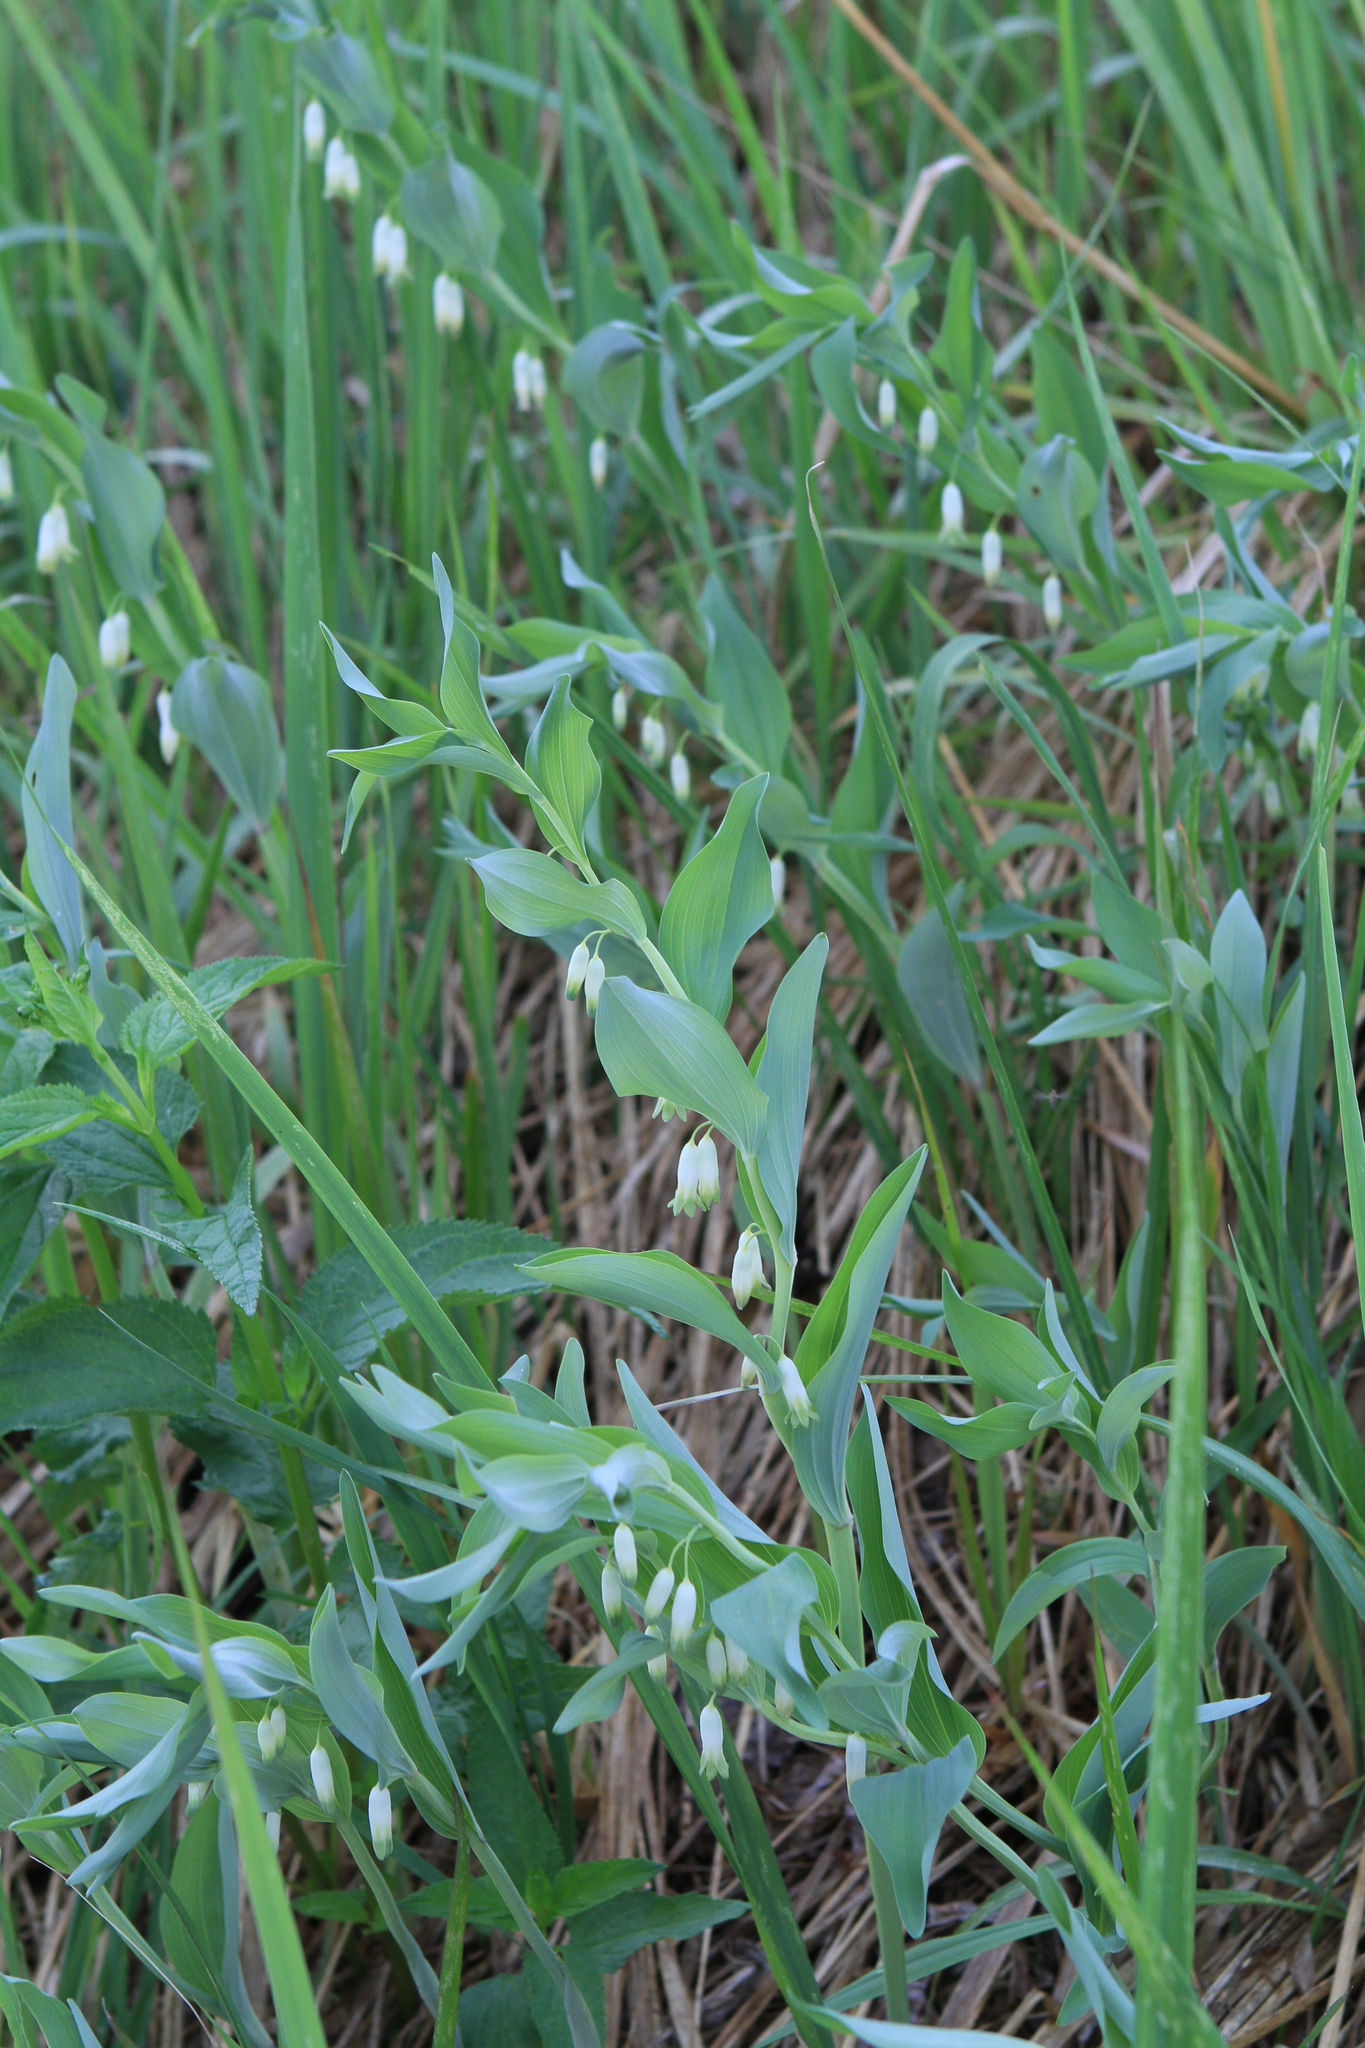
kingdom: Plantae
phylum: Tracheophyta
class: Liliopsida
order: Asparagales
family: Asparagaceae
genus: Polygonatum
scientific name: Polygonatum odoratum
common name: Angular solomon's-seal
